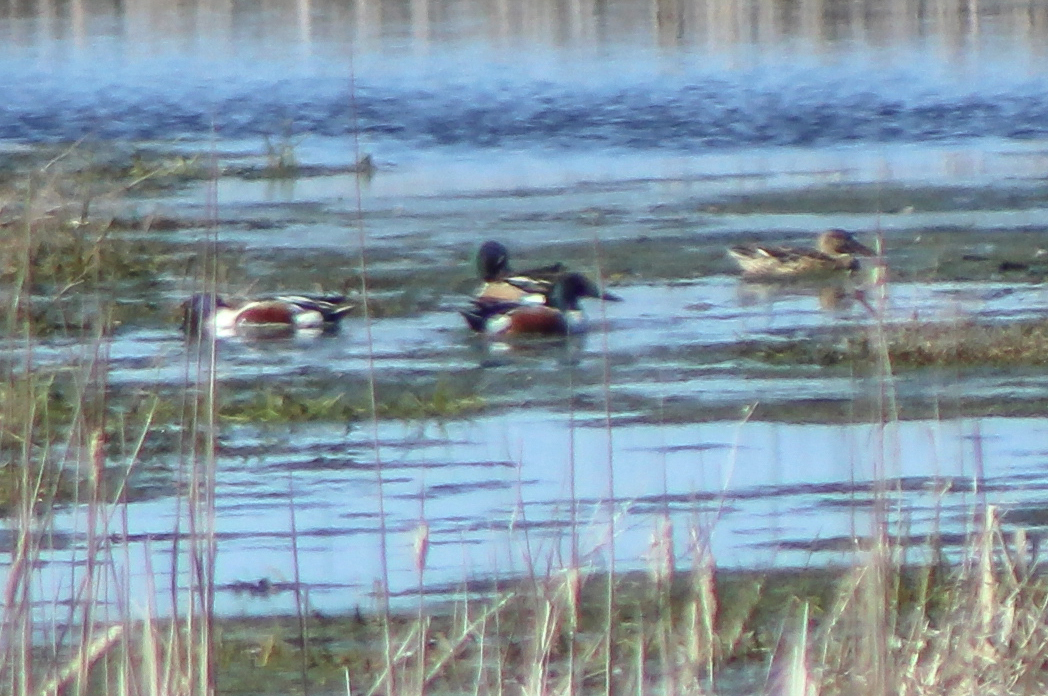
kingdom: Animalia
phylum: Chordata
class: Aves
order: Anseriformes
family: Anatidae
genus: Spatula
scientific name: Spatula clypeata
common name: Northern shoveler
